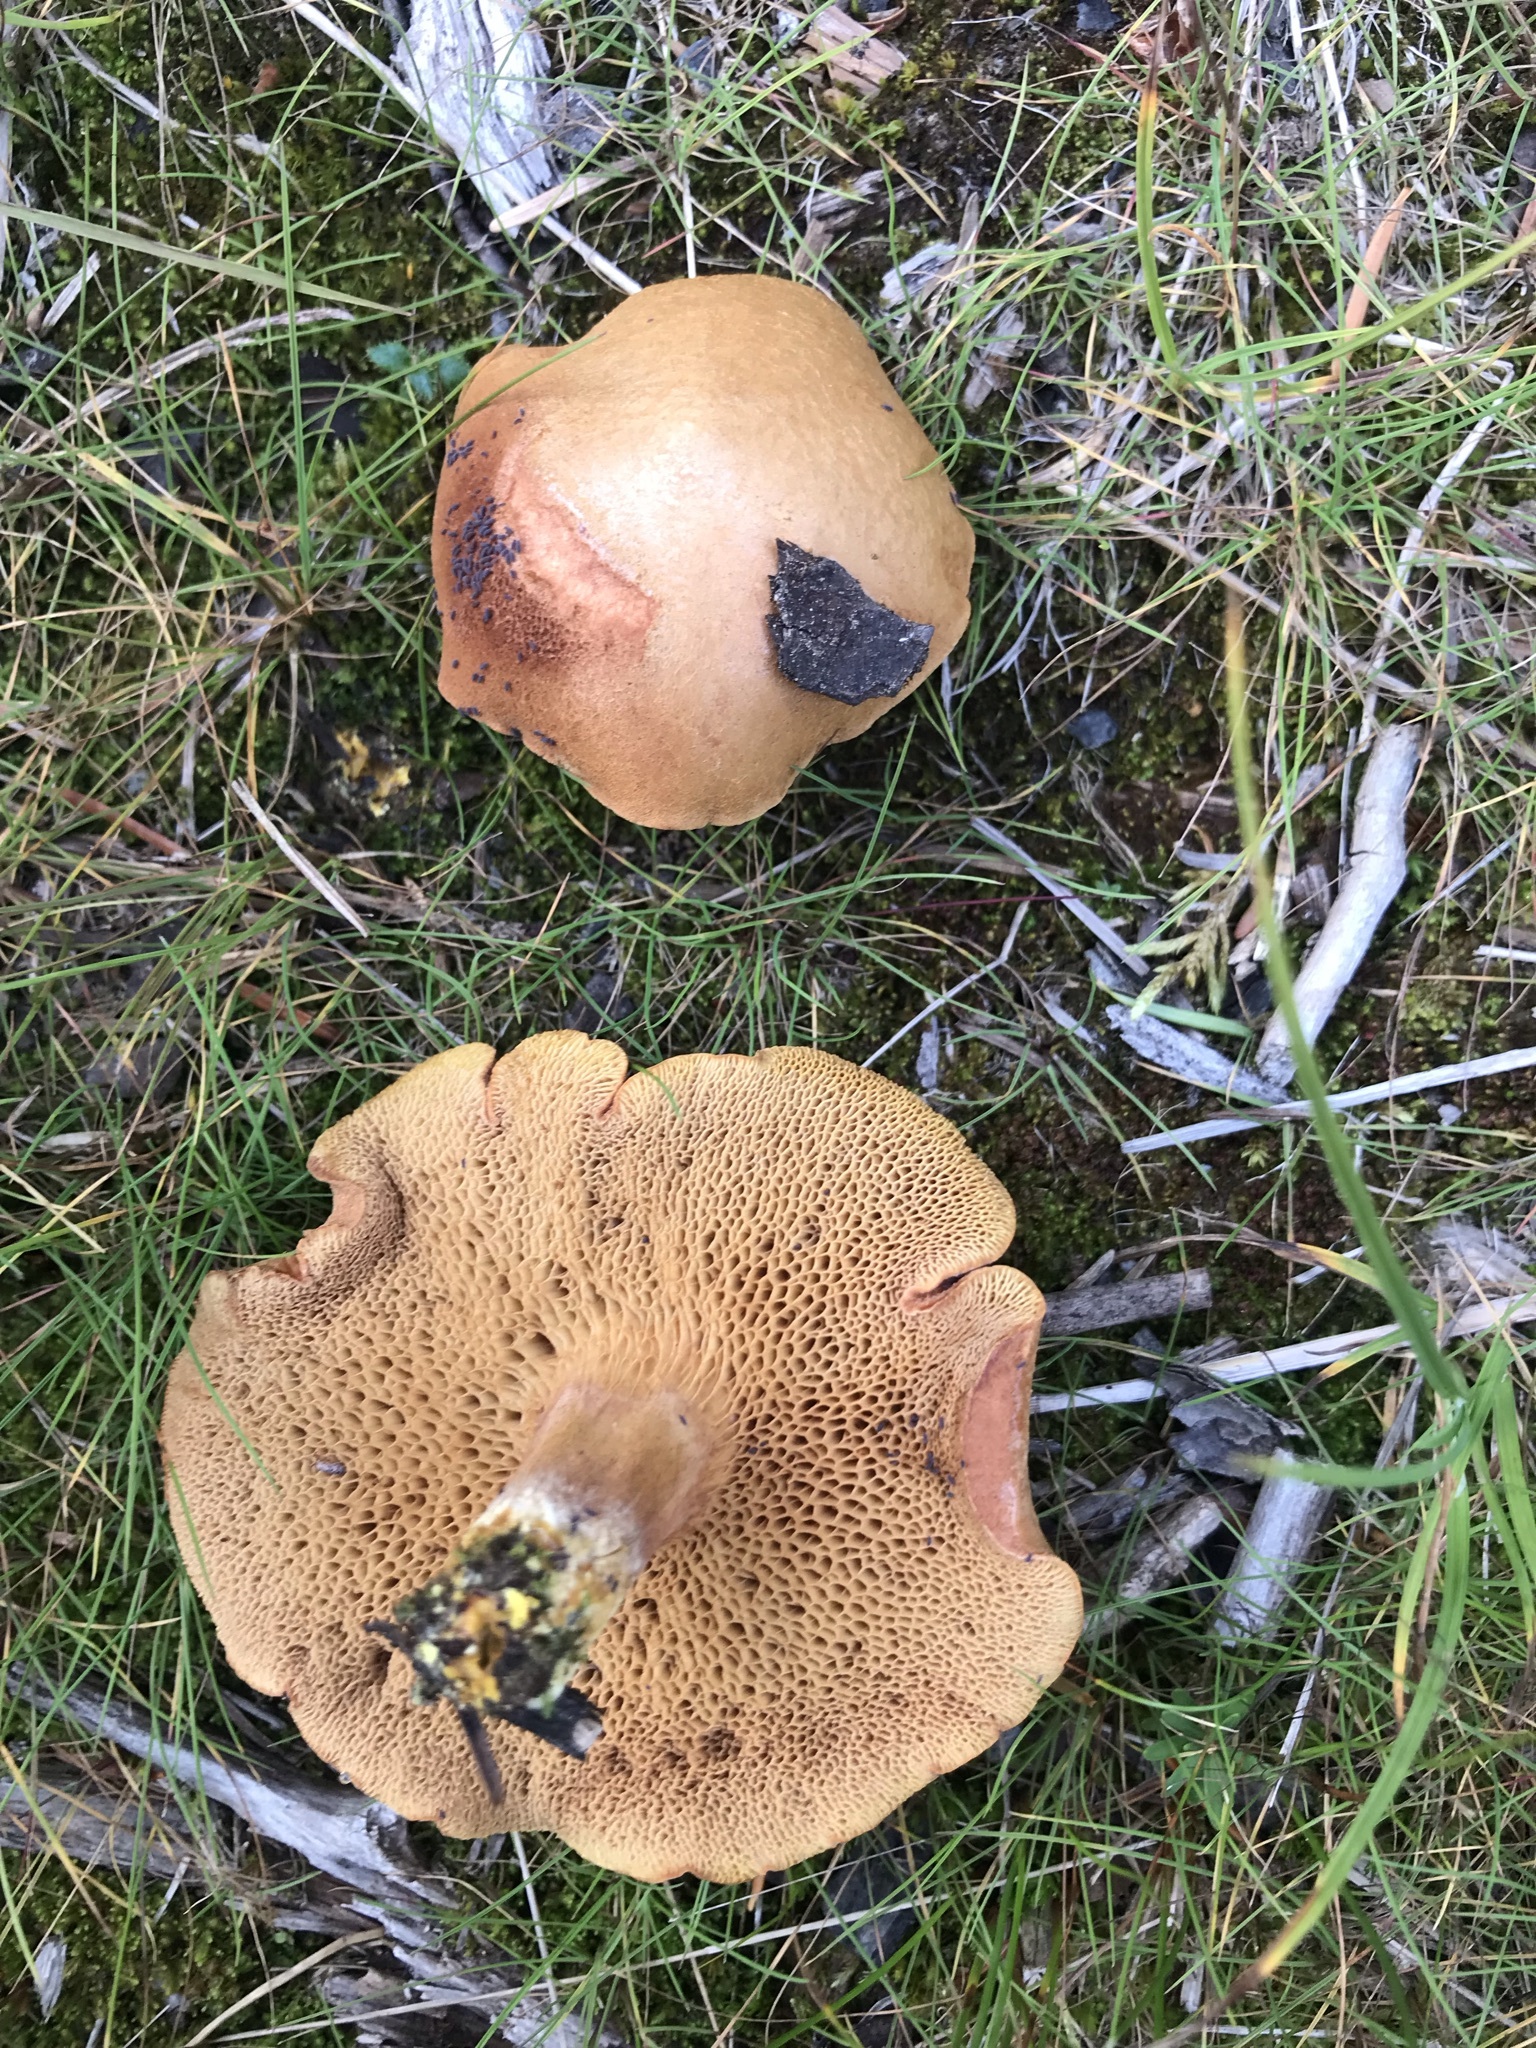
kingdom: Fungi
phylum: Basidiomycota
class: Agaricomycetes
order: Boletales
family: Boletaceae
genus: Chalciporus
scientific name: Chalciporus piperatus
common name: Peppery bolete
